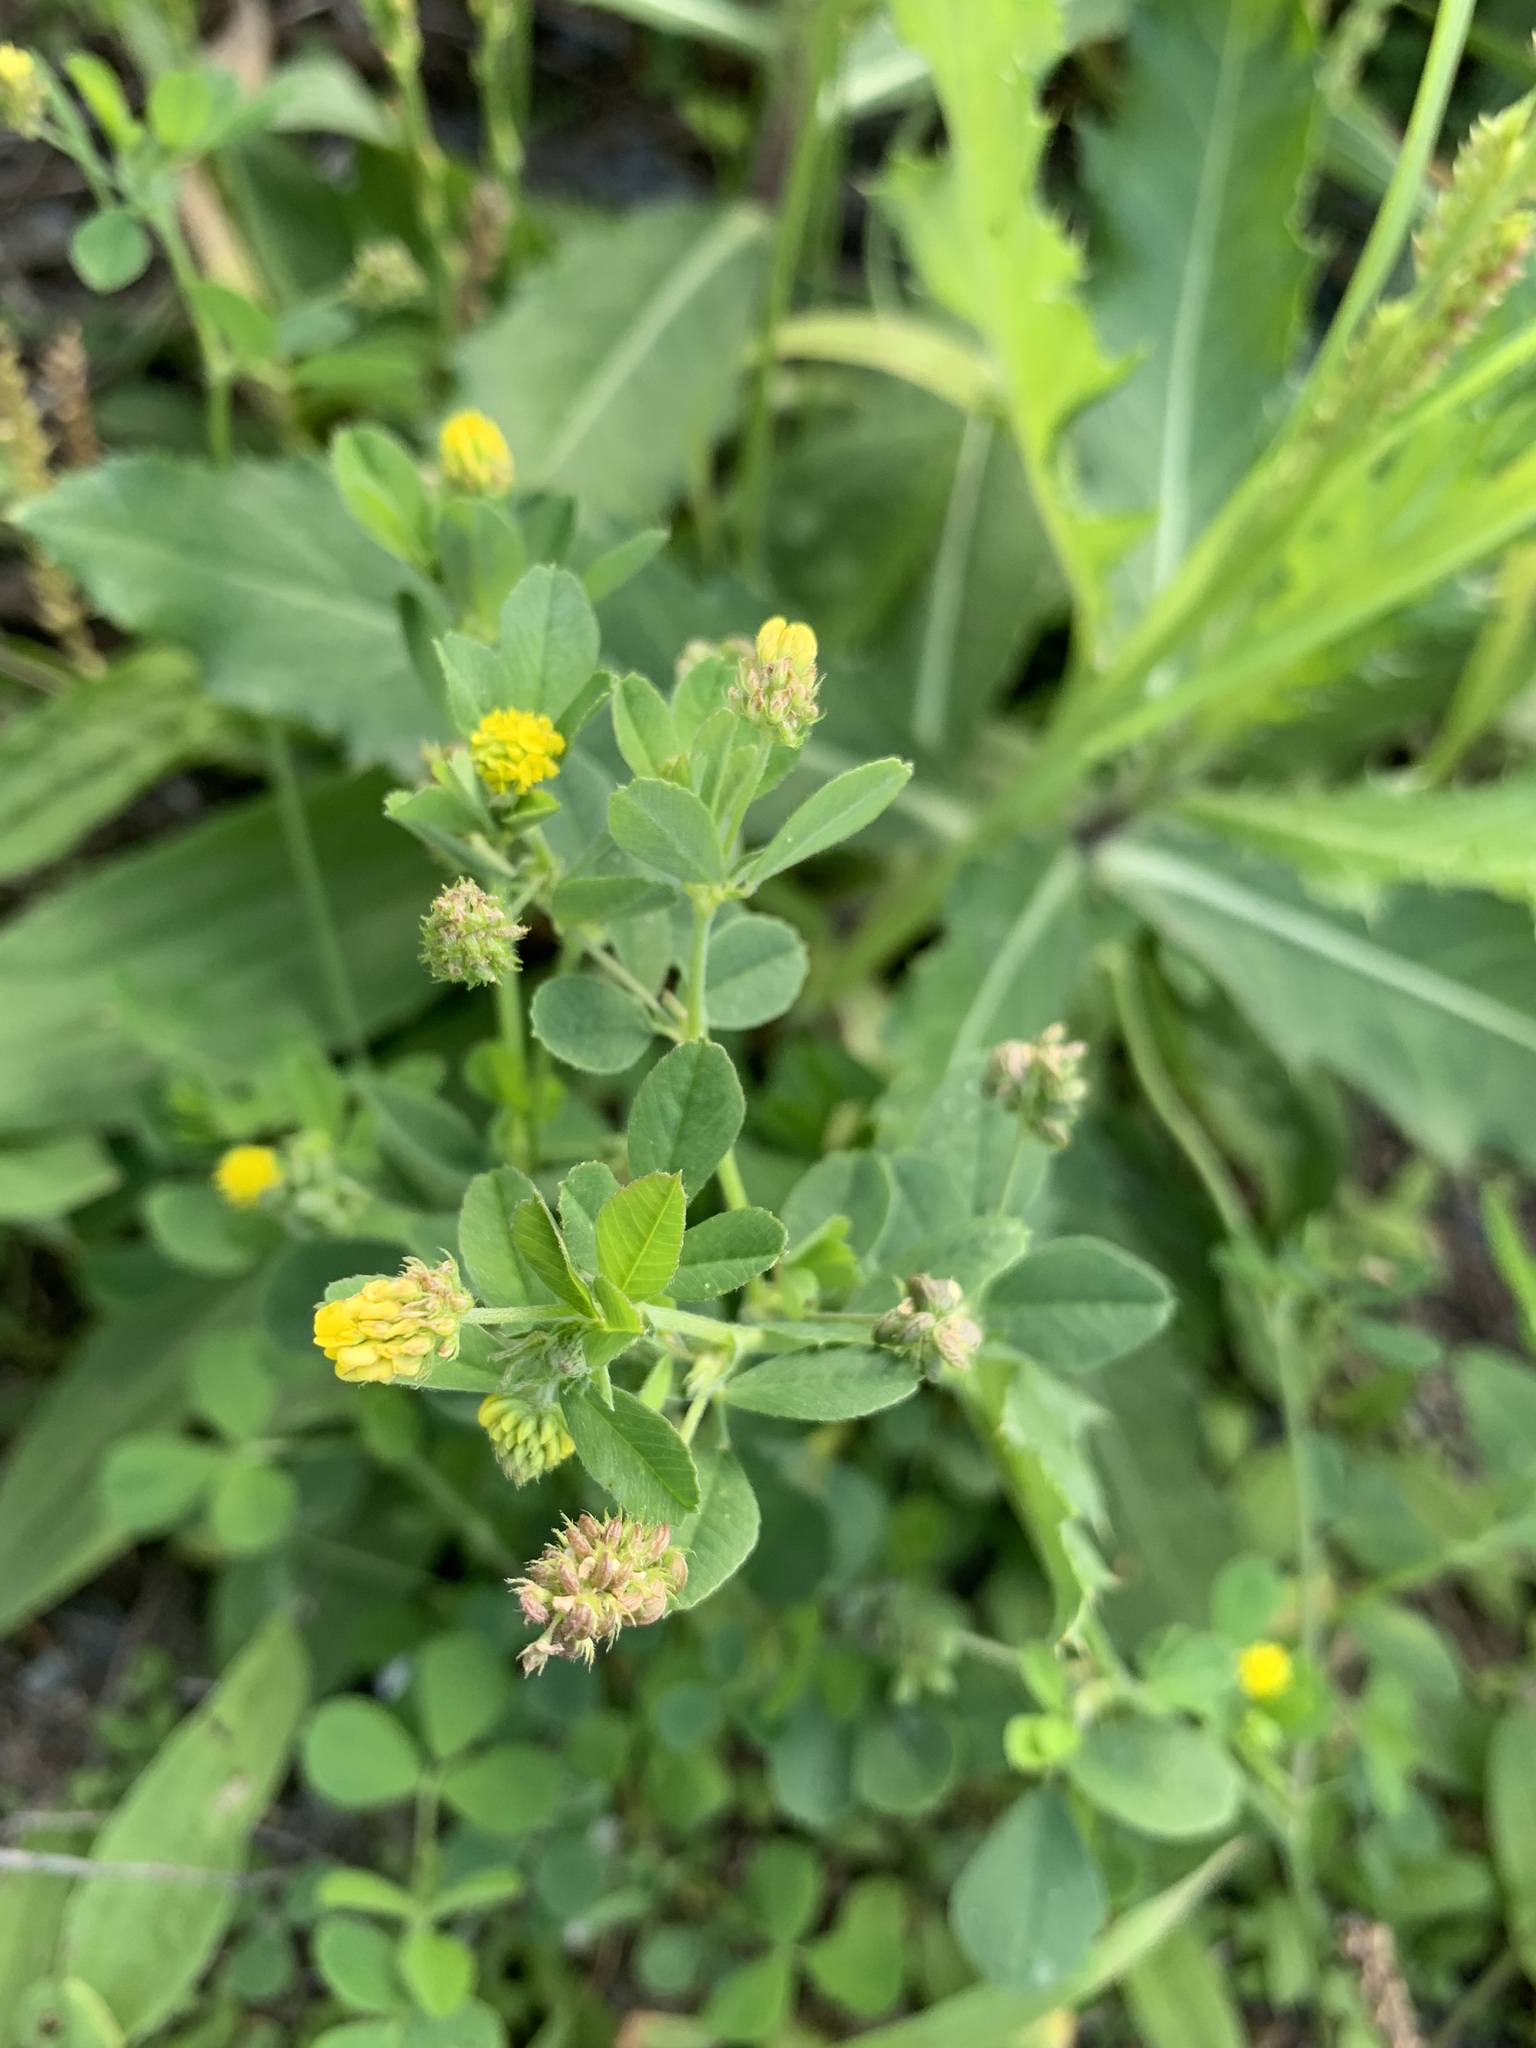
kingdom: Plantae
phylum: Tracheophyta
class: Magnoliopsida
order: Fabales
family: Fabaceae
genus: Medicago
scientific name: Medicago lupulina
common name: Black medick
